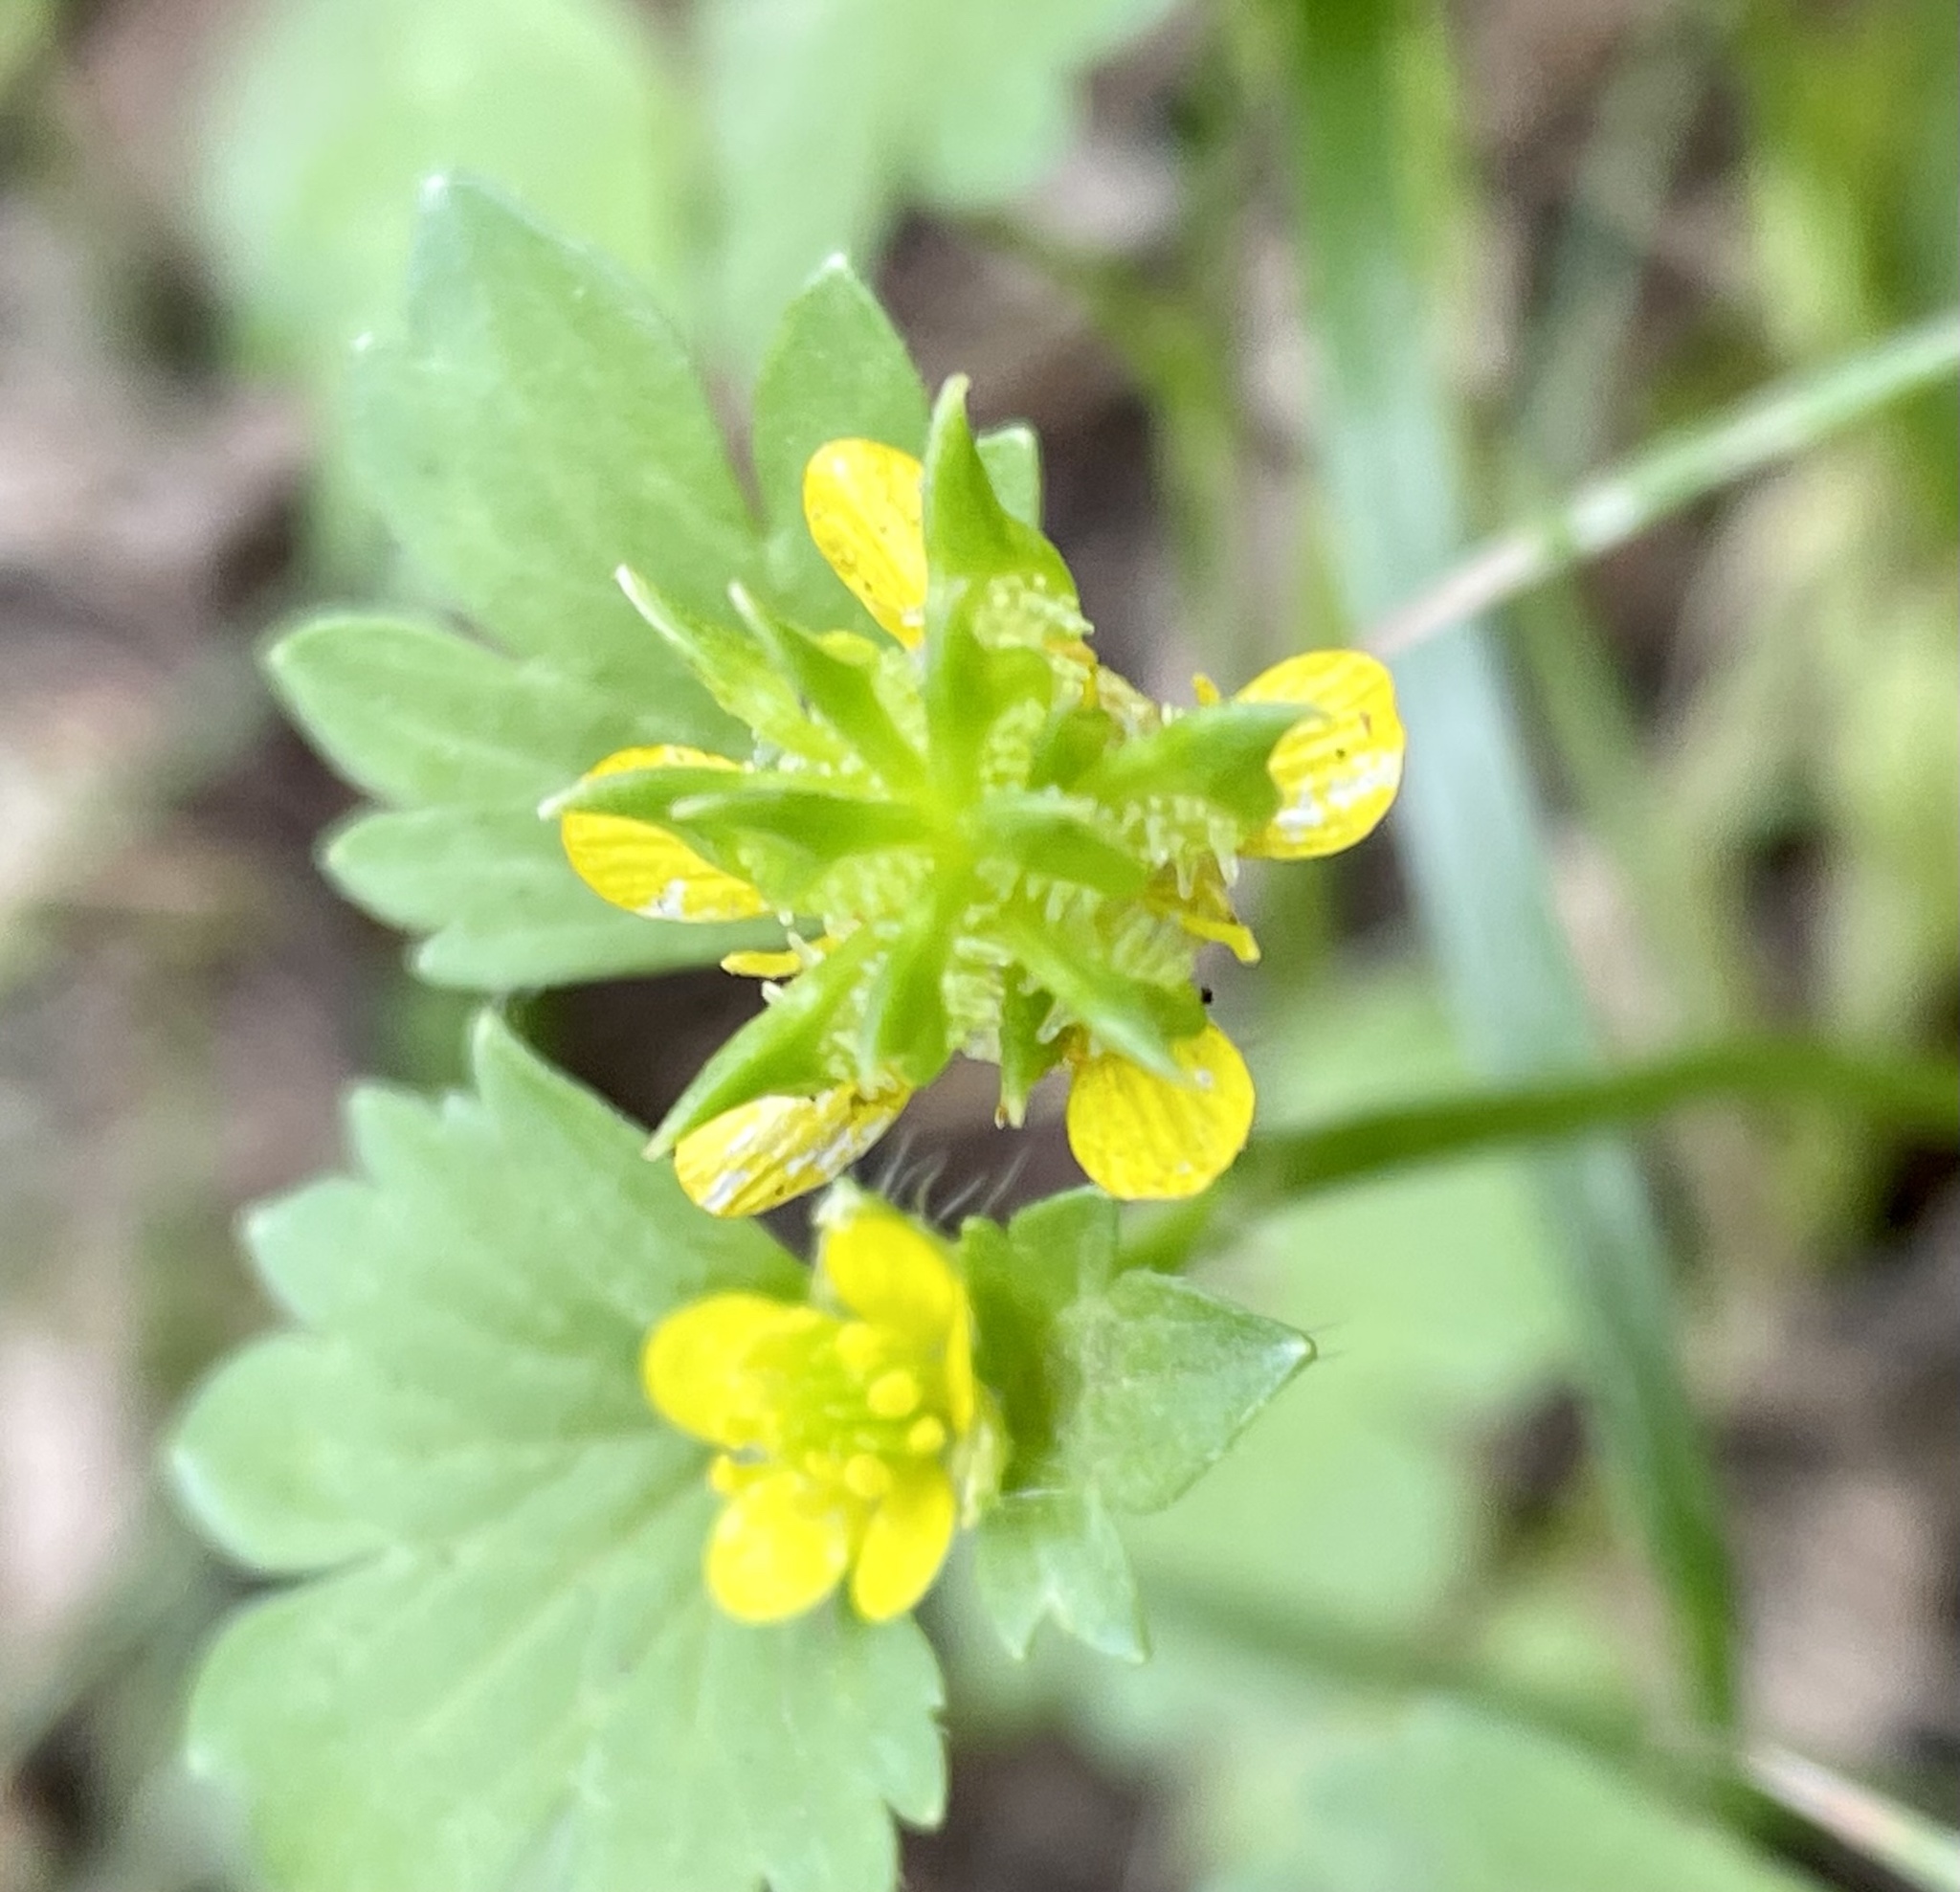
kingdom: Plantae
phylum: Tracheophyta
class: Magnoliopsida
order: Ranunculales
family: Ranunculaceae
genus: Ranunculus
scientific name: Ranunculus muricatus
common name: Rough-fruited buttercup
